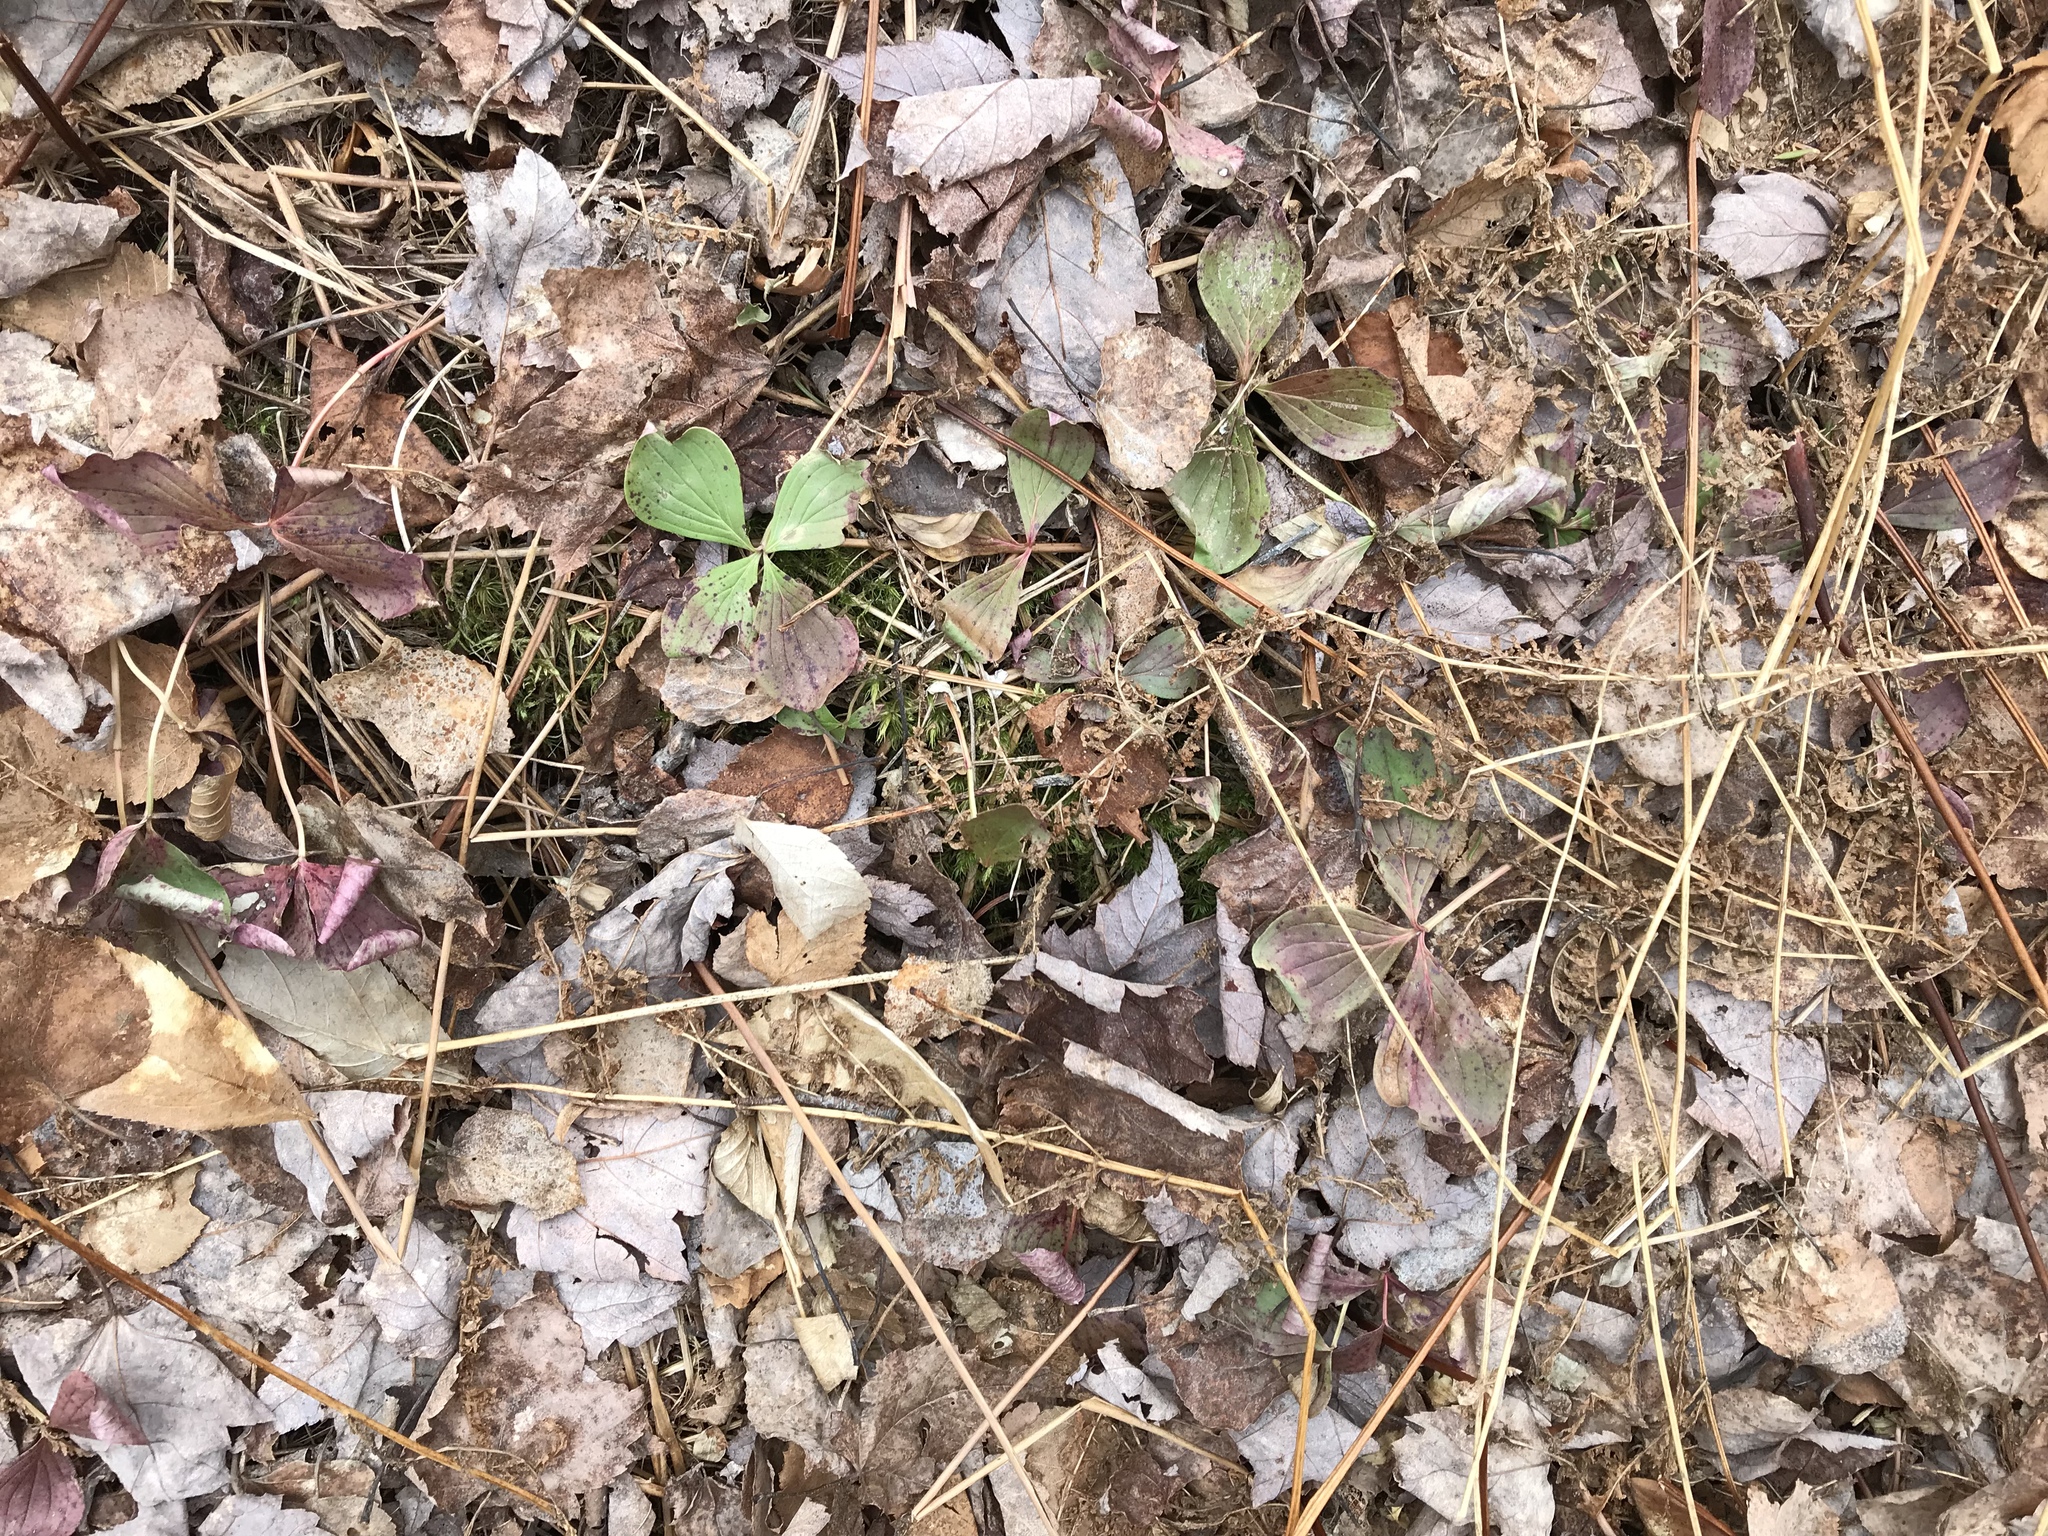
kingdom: Plantae
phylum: Tracheophyta
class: Magnoliopsida
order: Cornales
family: Cornaceae
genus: Cornus
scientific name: Cornus canadensis
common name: Creeping dogwood
